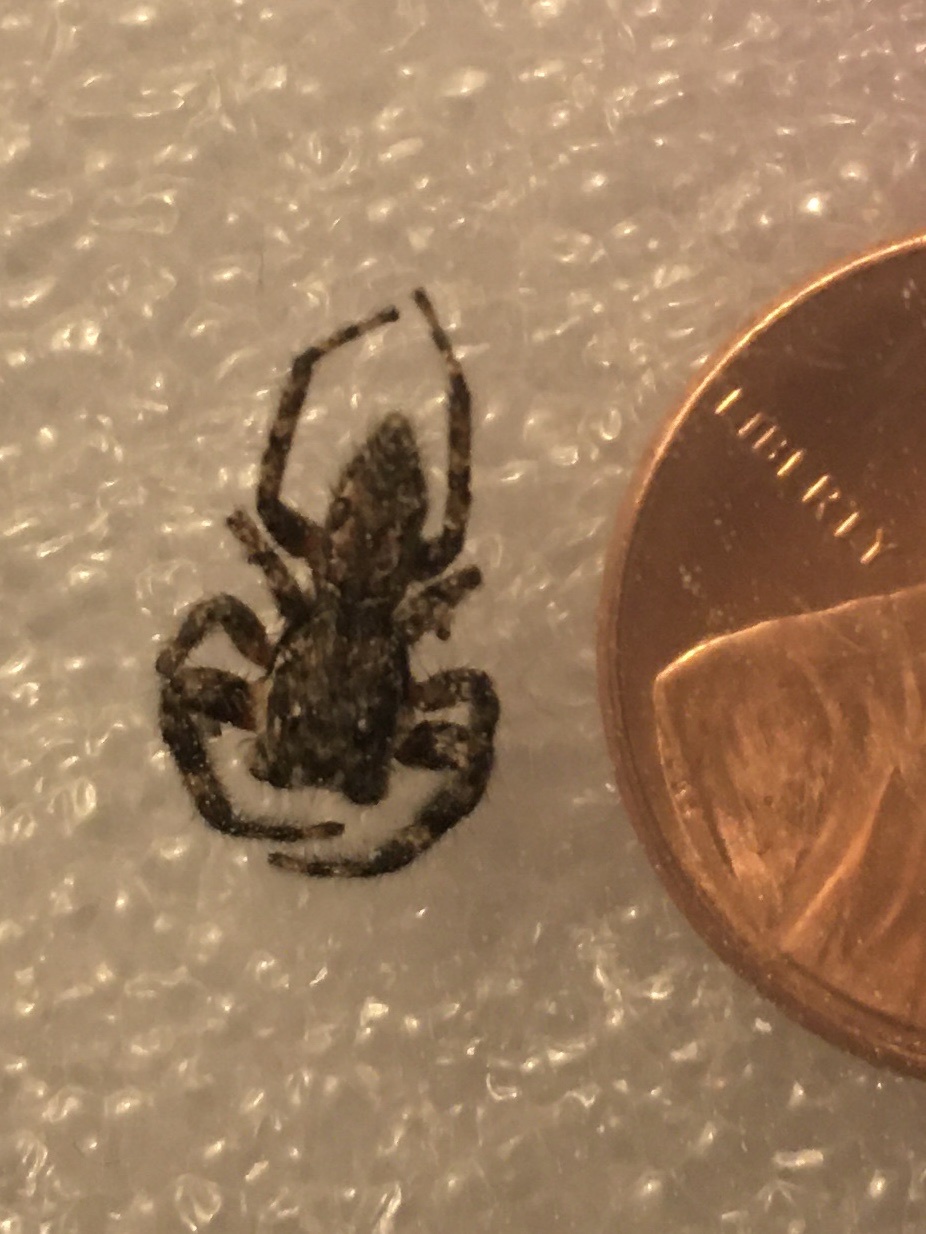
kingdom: Animalia
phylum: Arthropoda
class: Arachnida
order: Araneae
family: Salticidae
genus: Platycryptus
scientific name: Platycryptus undatus
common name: Tan jumping spider
